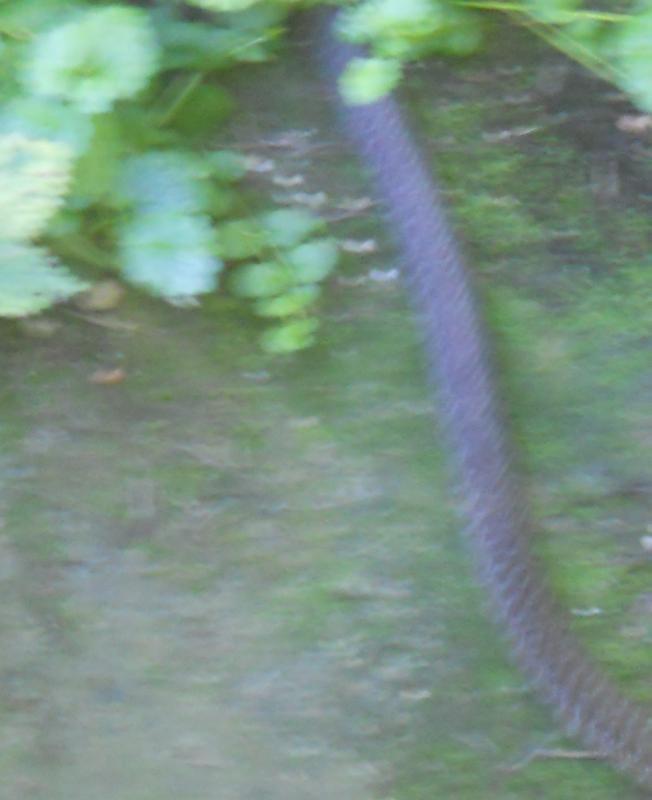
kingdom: Animalia
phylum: Chordata
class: Squamata
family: Colubridae
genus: Zamenis
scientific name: Zamenis longissimus
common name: Aesculapean snake
